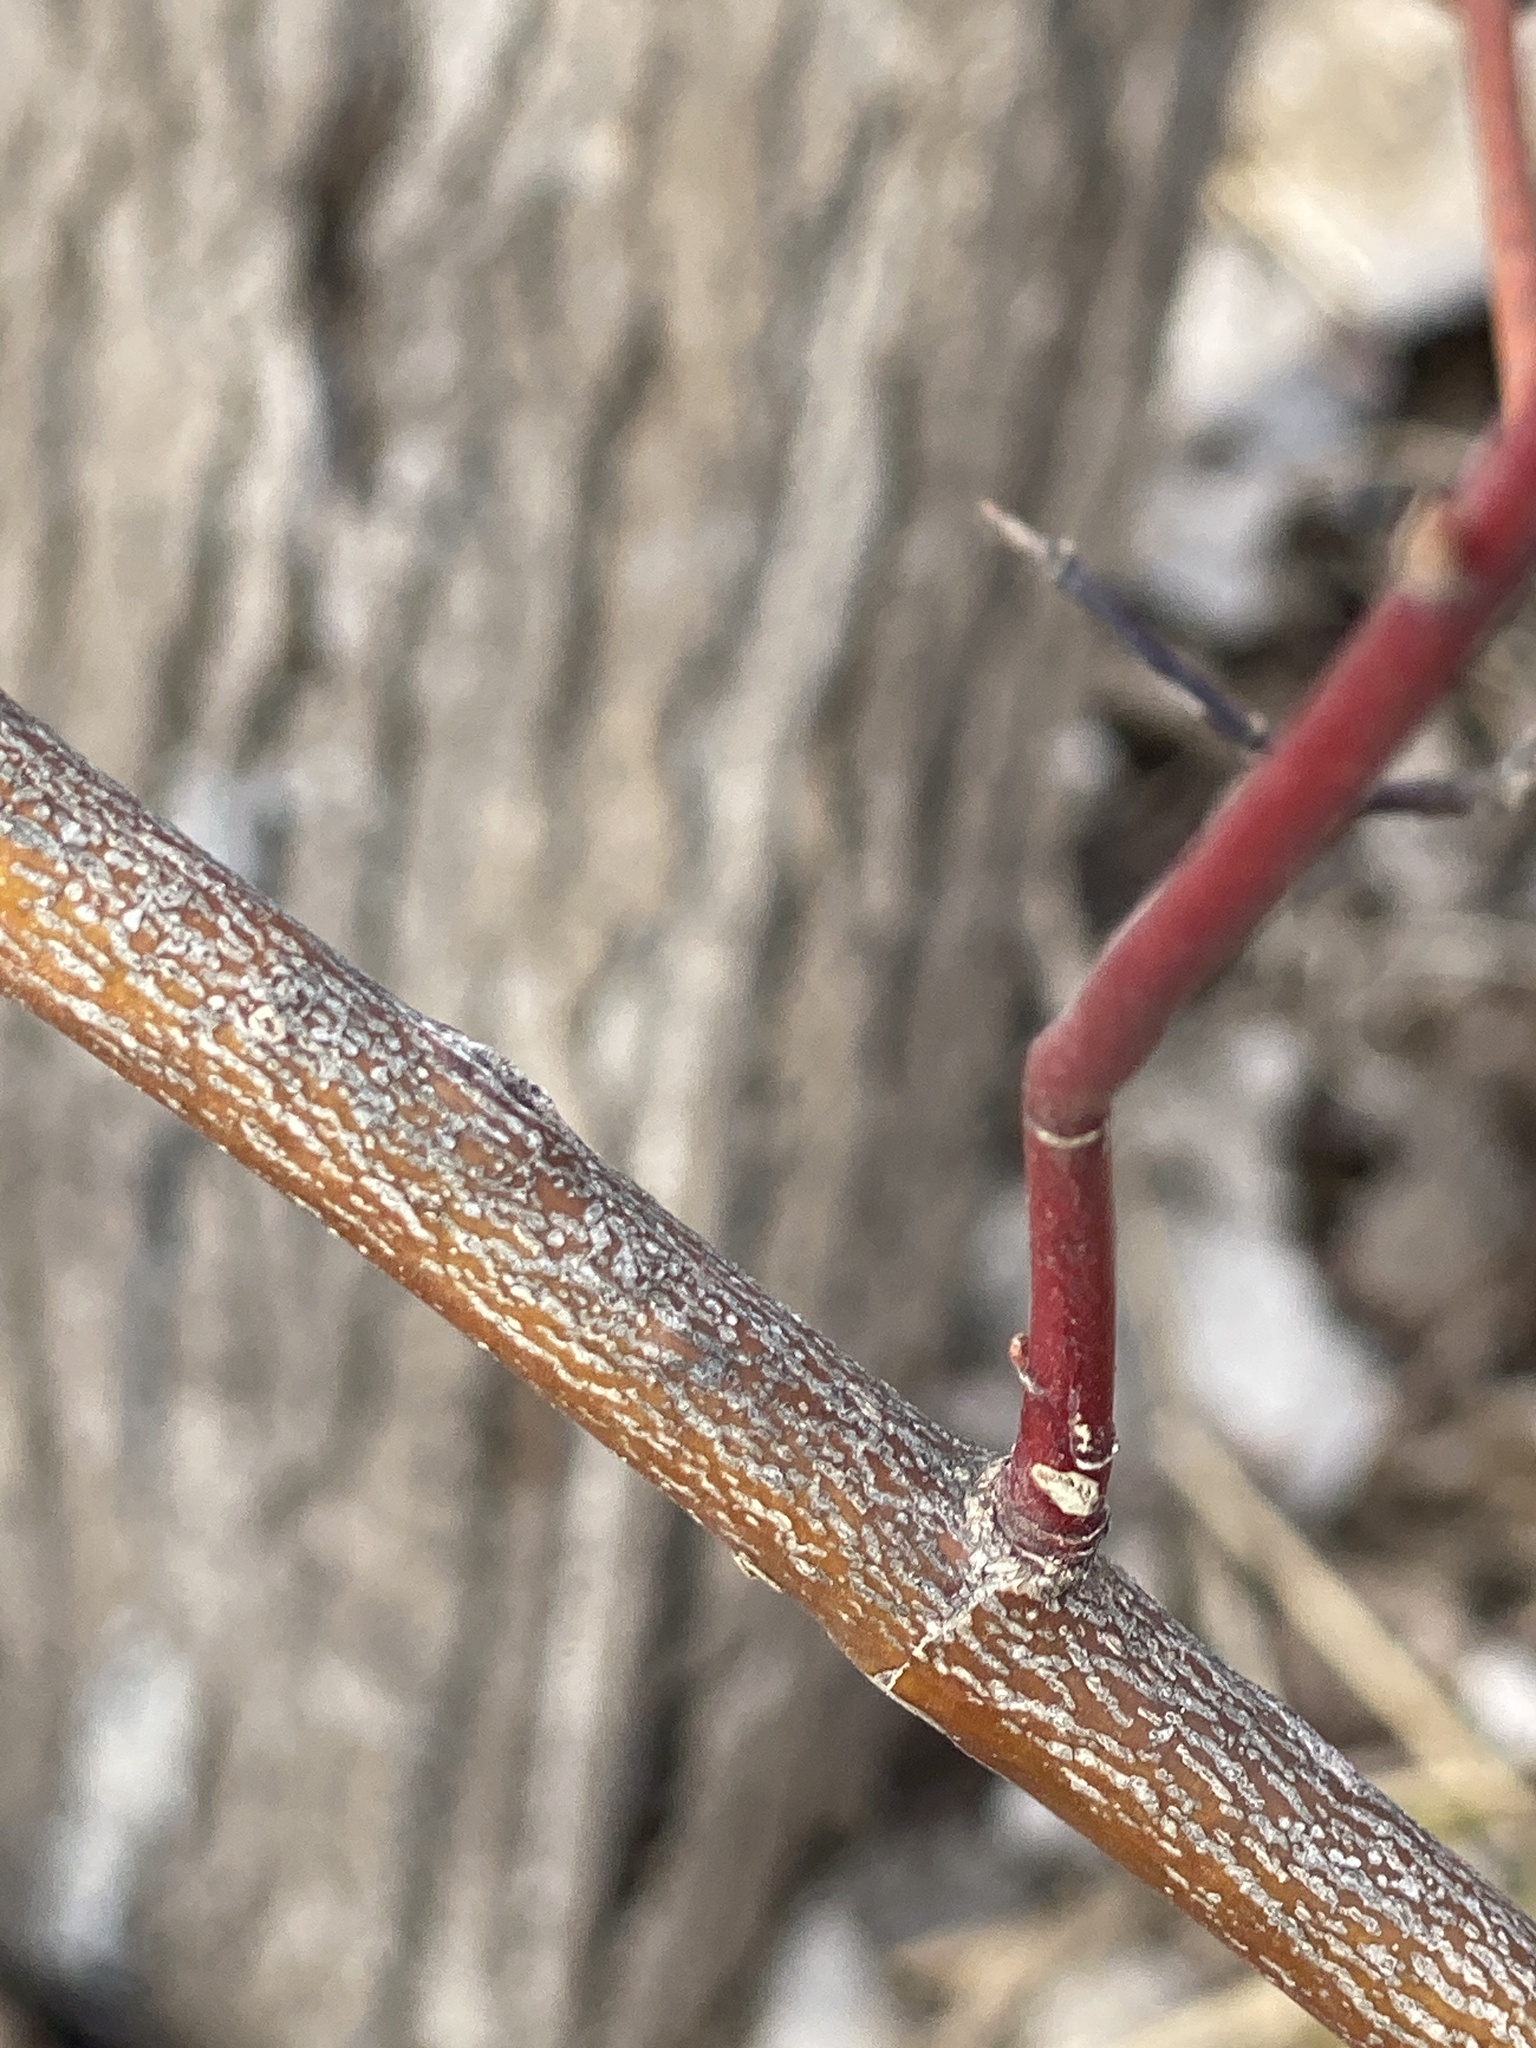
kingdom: Plantae
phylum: Tracheophyta
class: Magnoliopsida
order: Cornales
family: Cornaceae
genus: Cornus
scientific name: Cornus amomum
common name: Silky dogwood
